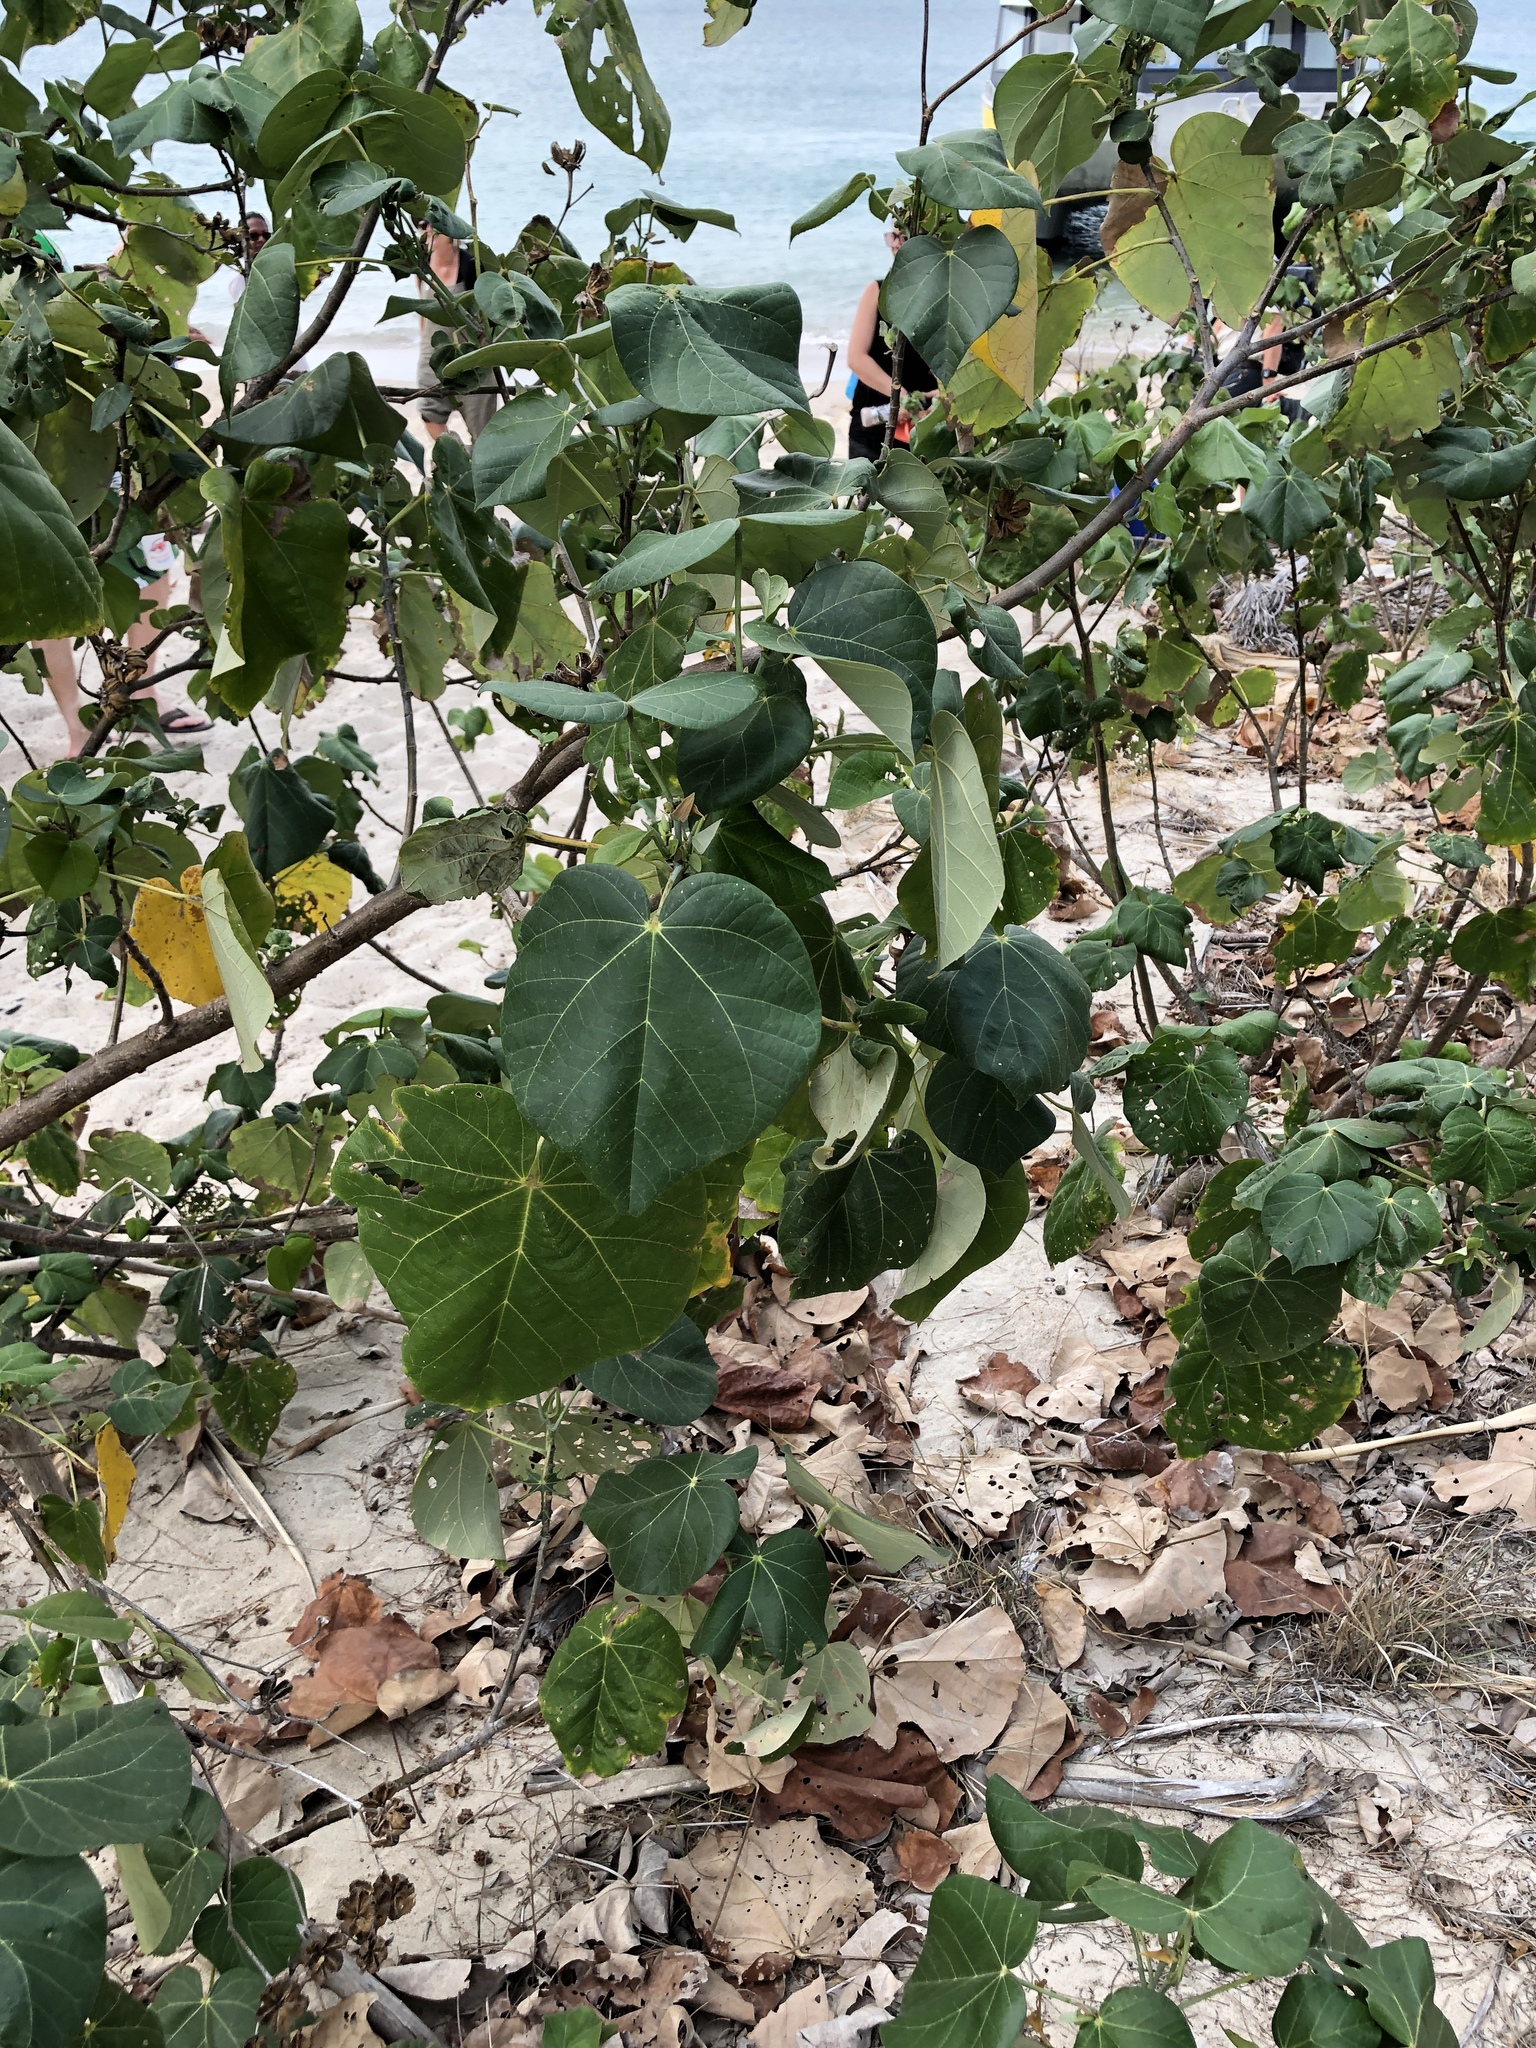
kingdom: Plantae
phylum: Tracheophyta
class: Magnoliopsida
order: Malvales
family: Malvaceae
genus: Talipariti
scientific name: Talipariti tiliaceum
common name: Sea hibiscus
